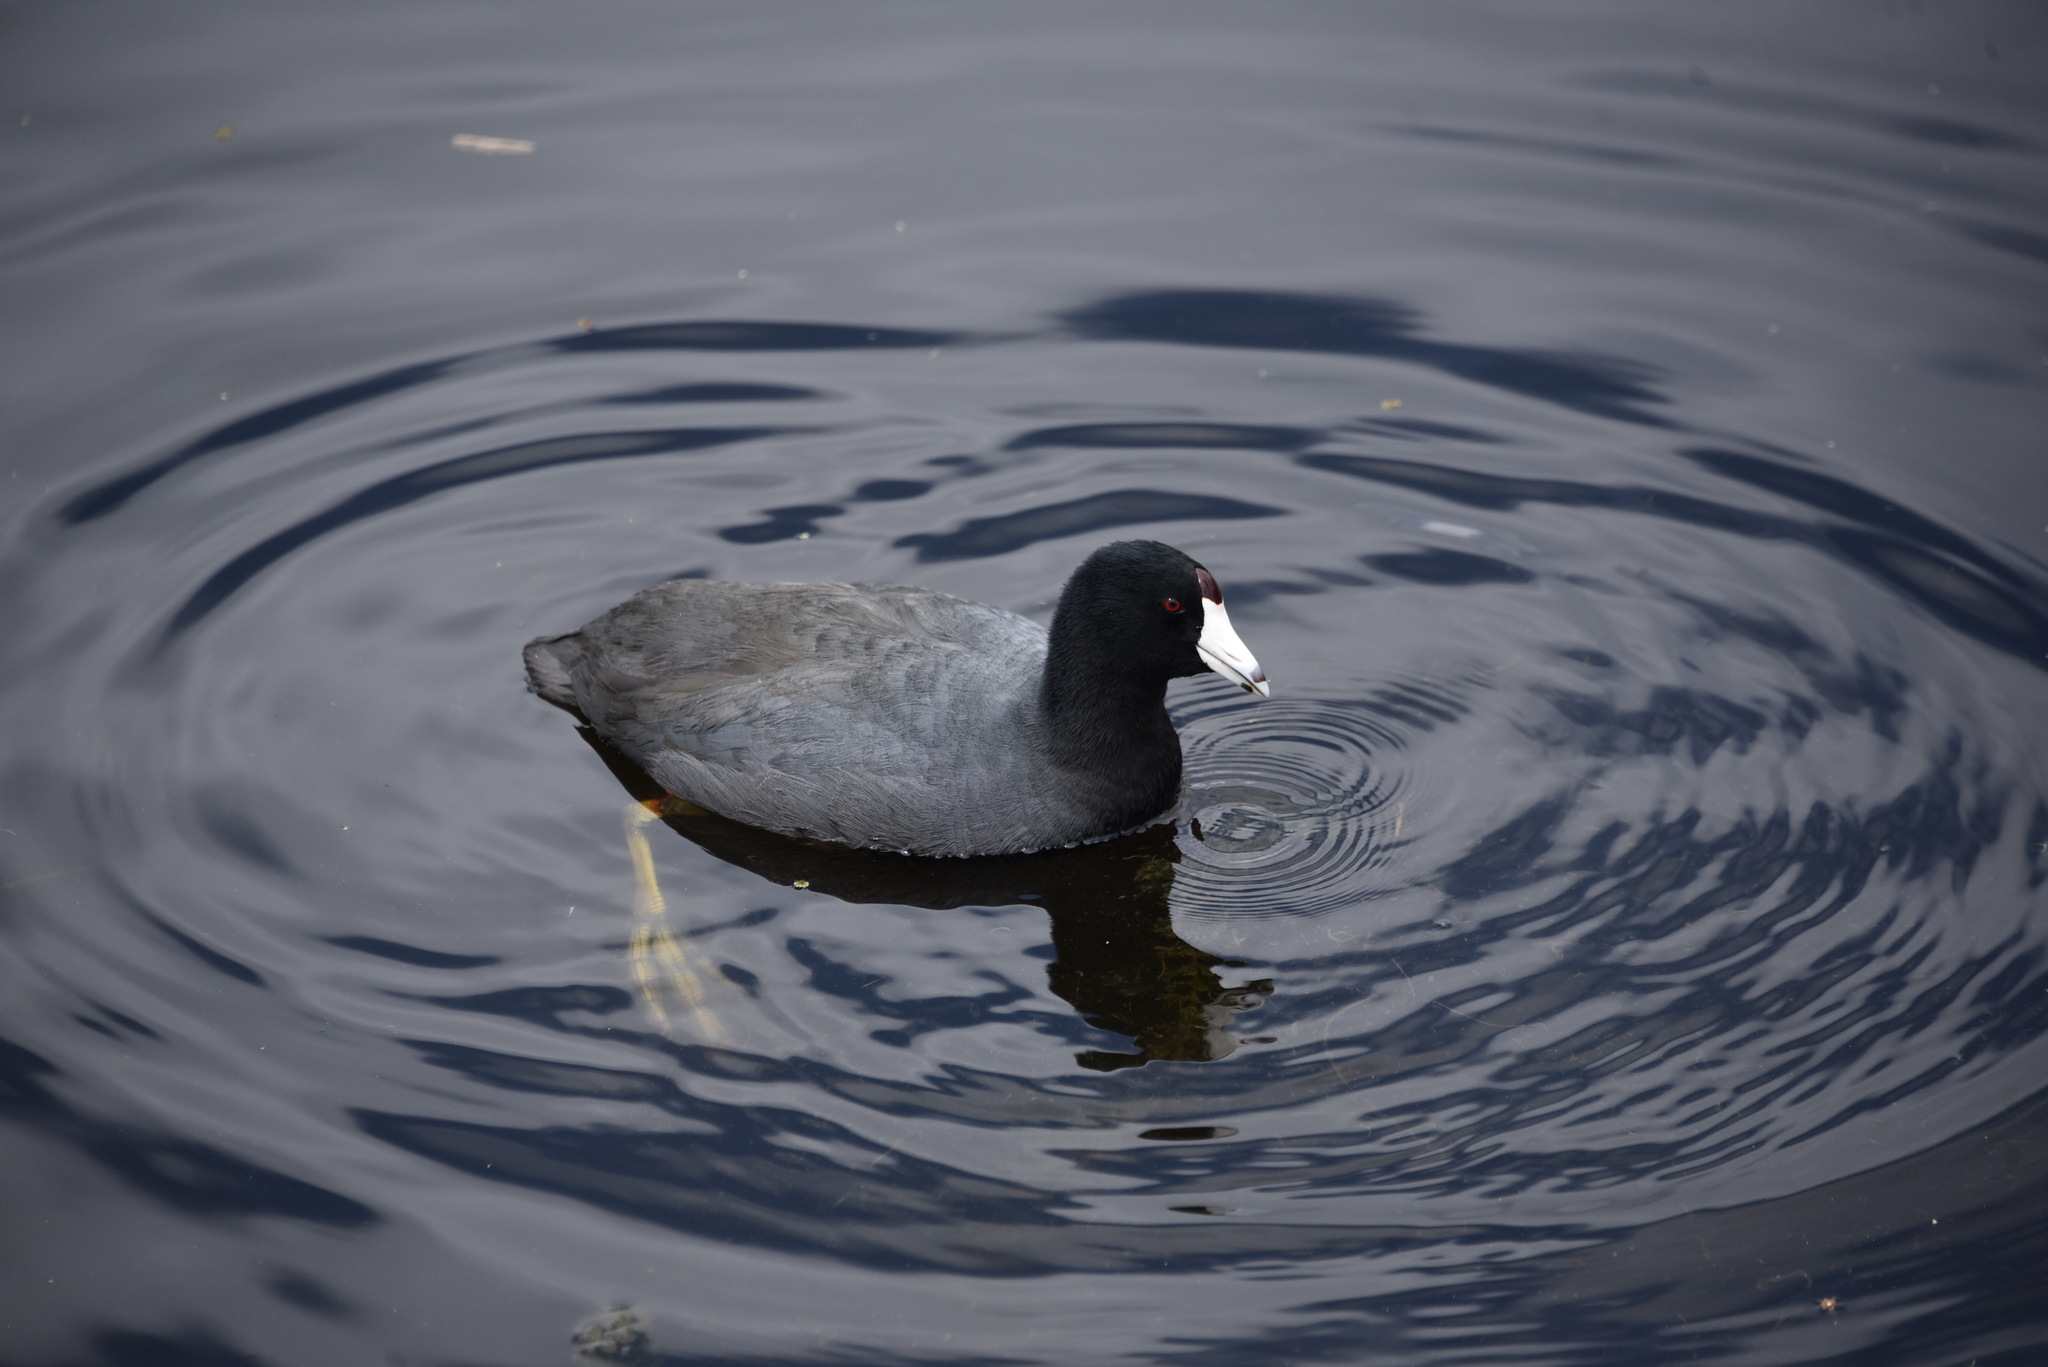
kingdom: Animalia
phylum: Chordata
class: Aves
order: Gruiformes
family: Rallidae
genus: Fulica
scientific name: Fulica americana
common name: American coot
